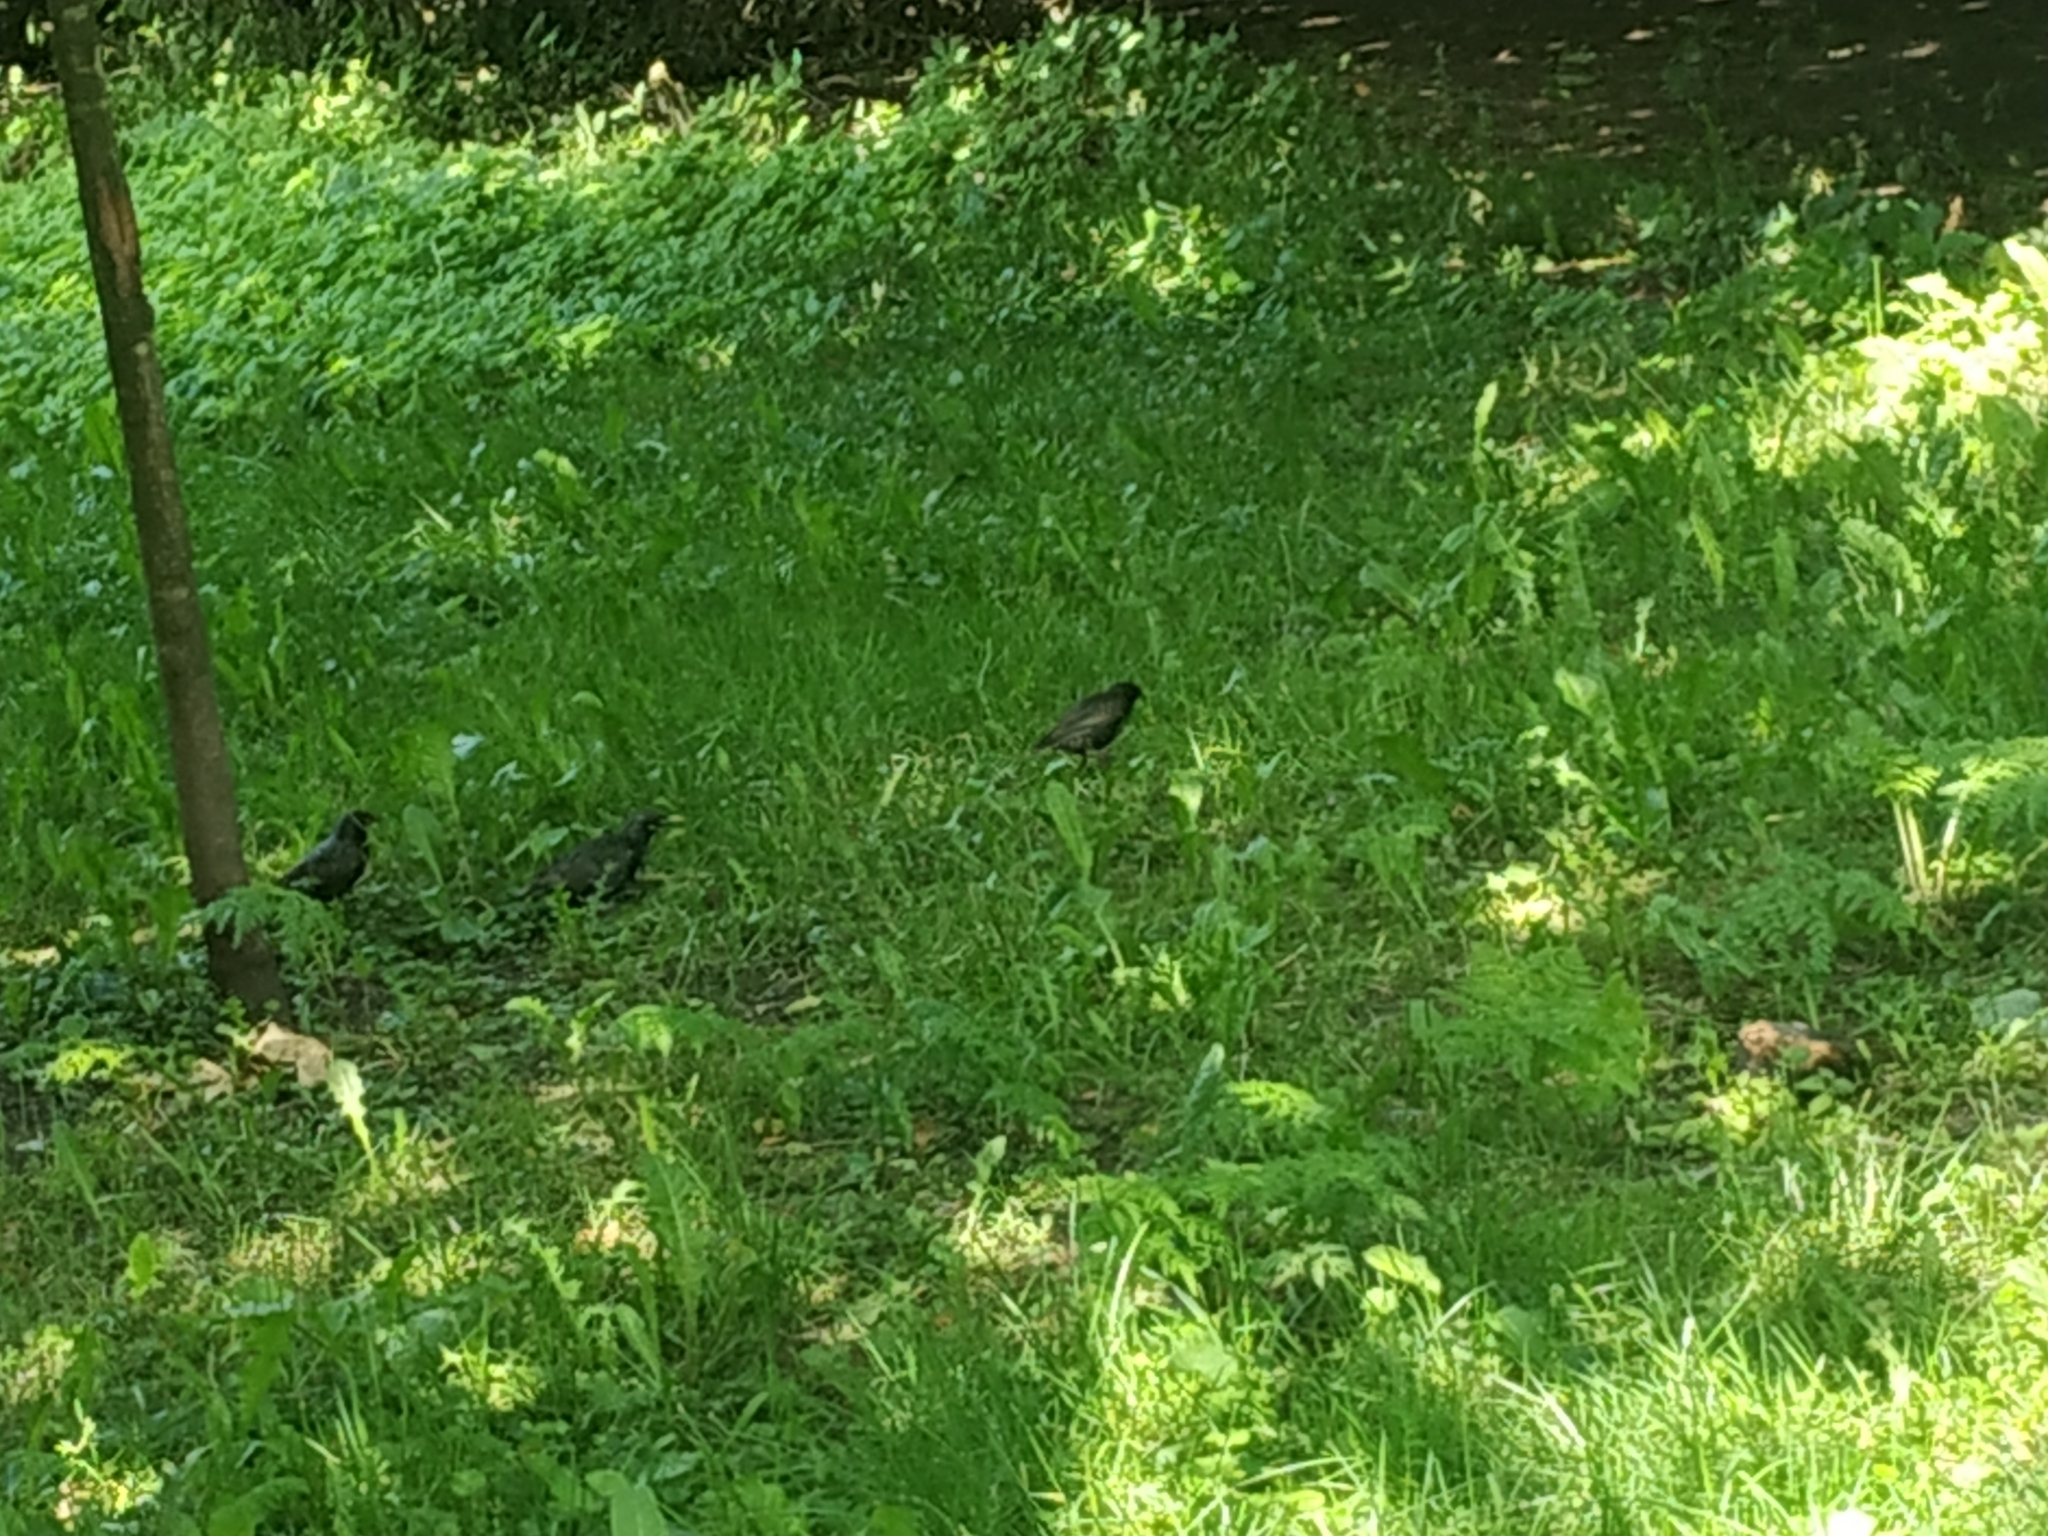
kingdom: Animalia
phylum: Chordata
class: Aves
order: Passeriformes
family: Sturnidae
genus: Sturnus
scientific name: Sturnus vulgaris
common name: Common starling
